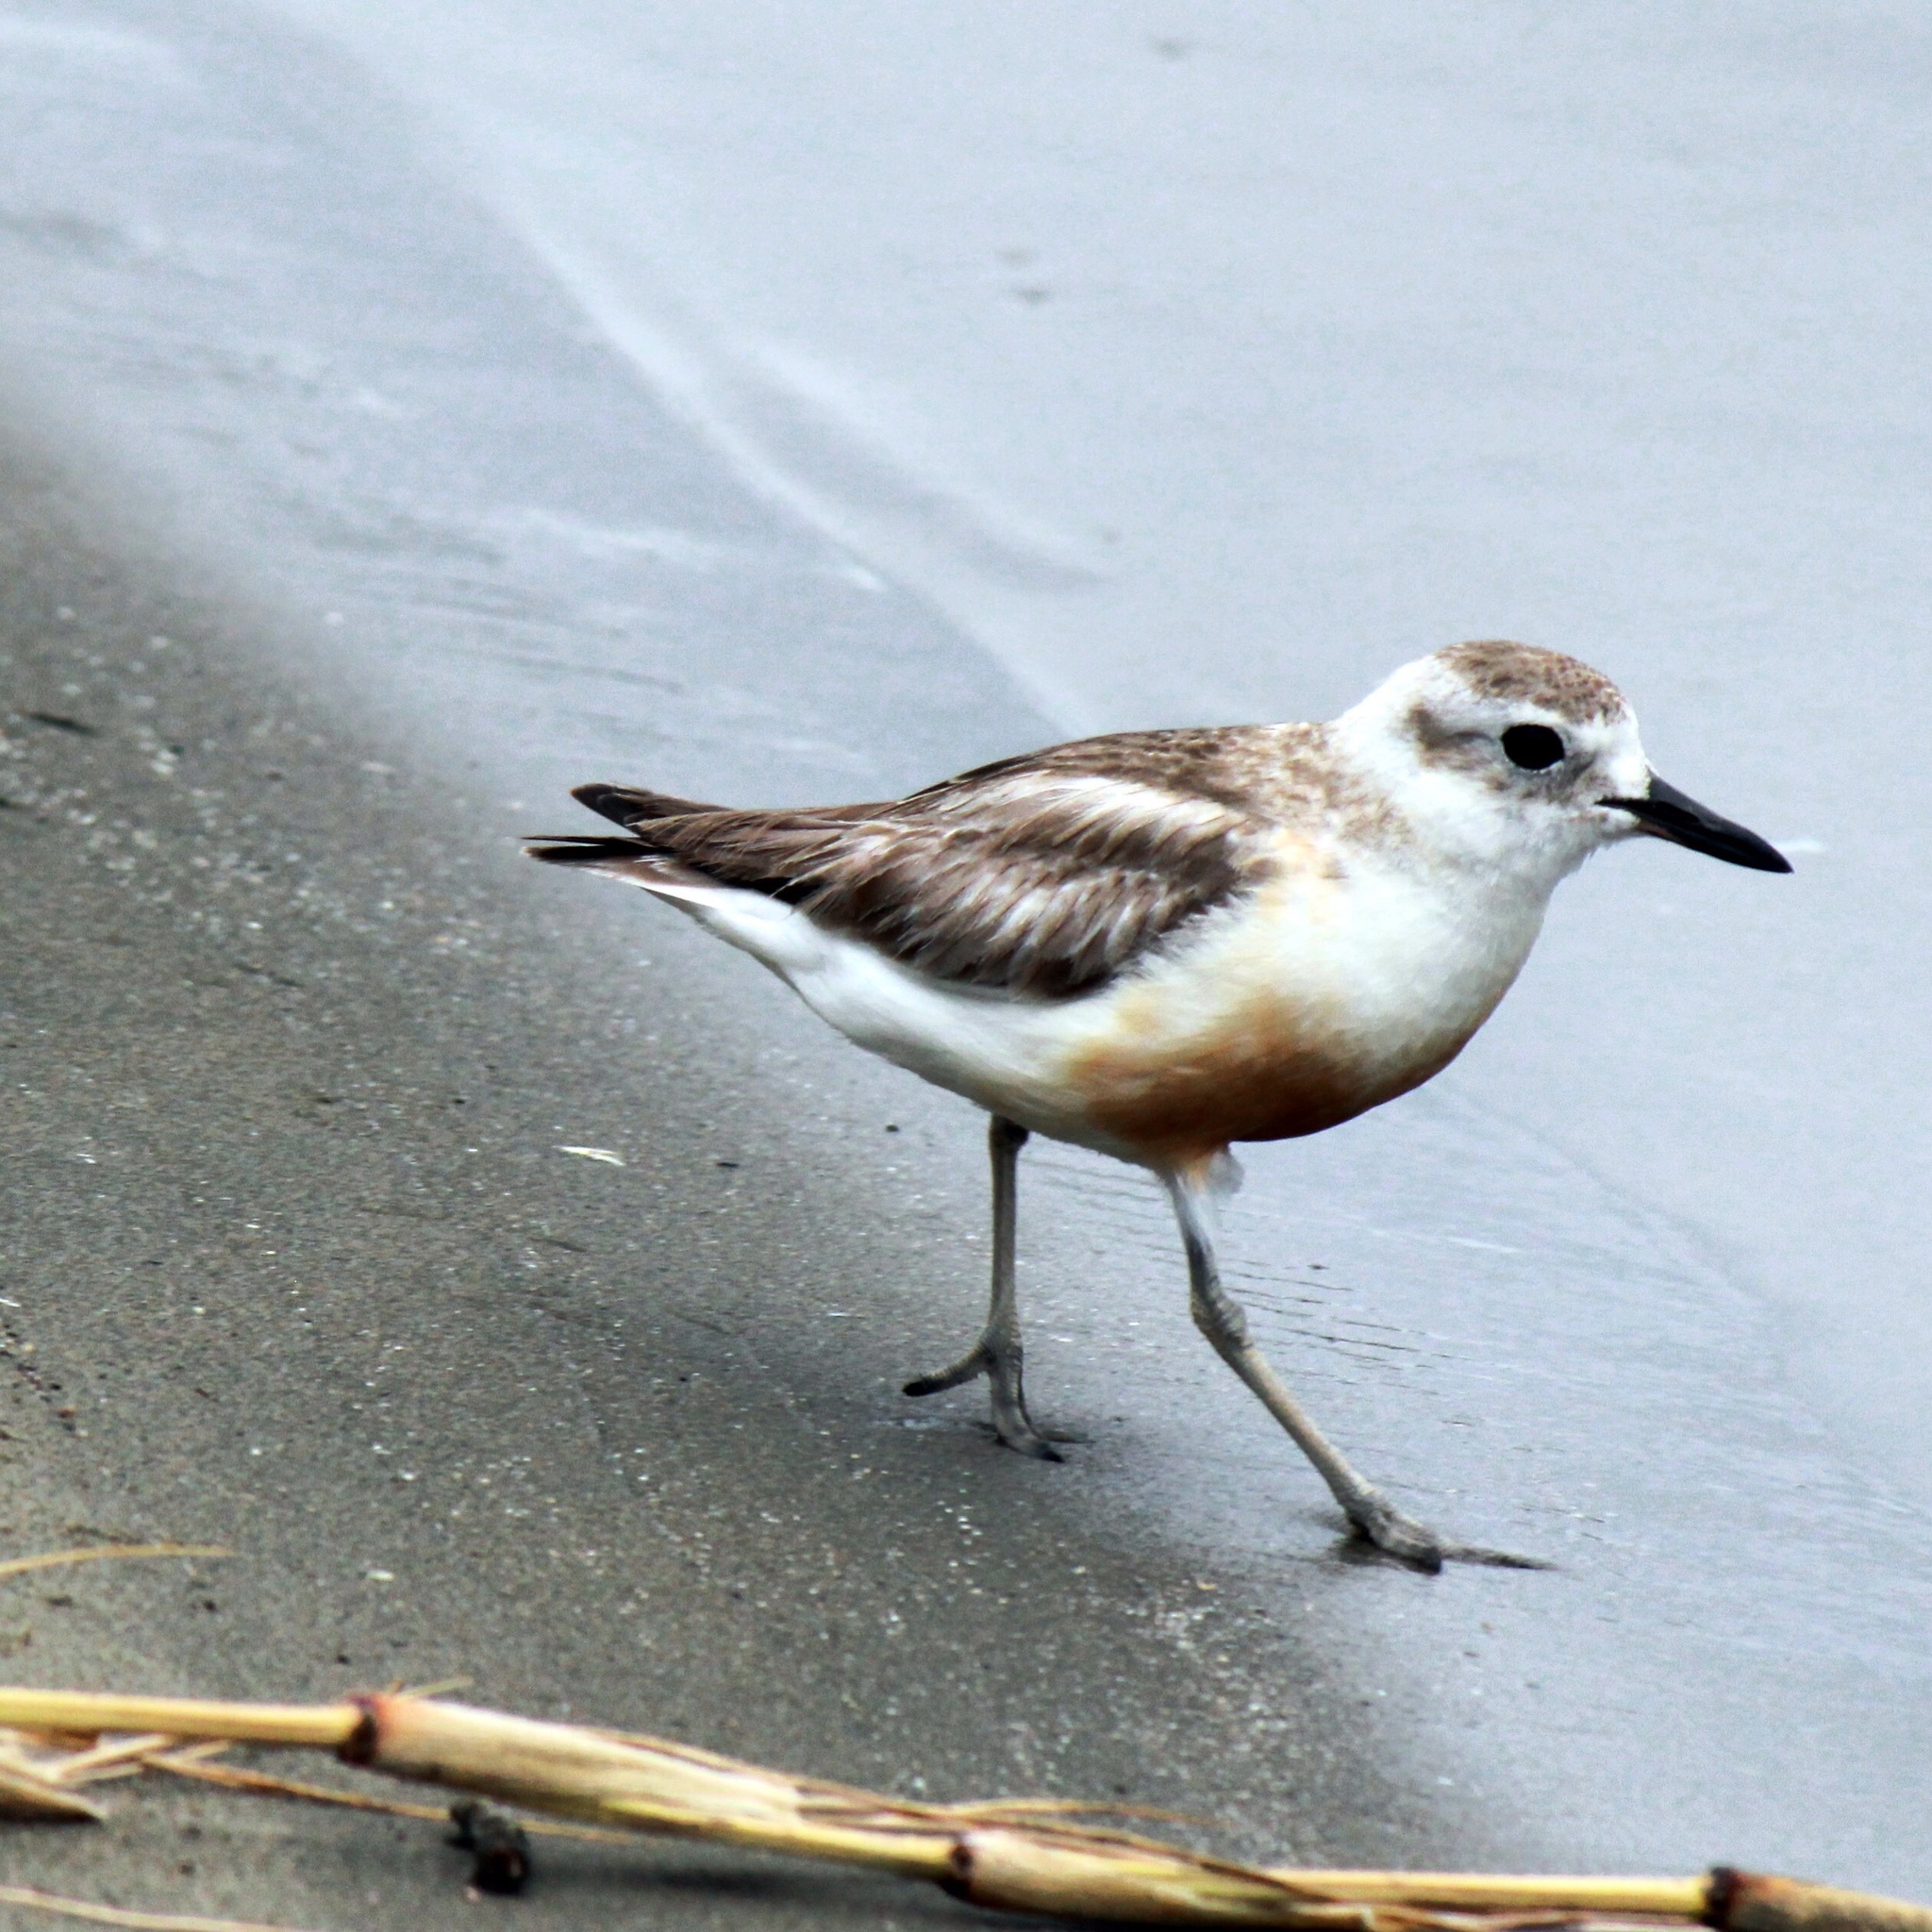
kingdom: Animalia
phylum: Chordata
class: Aves
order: Charadriiformes
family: Charadriidae
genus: Anarhynchus
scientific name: Anarhynchus
